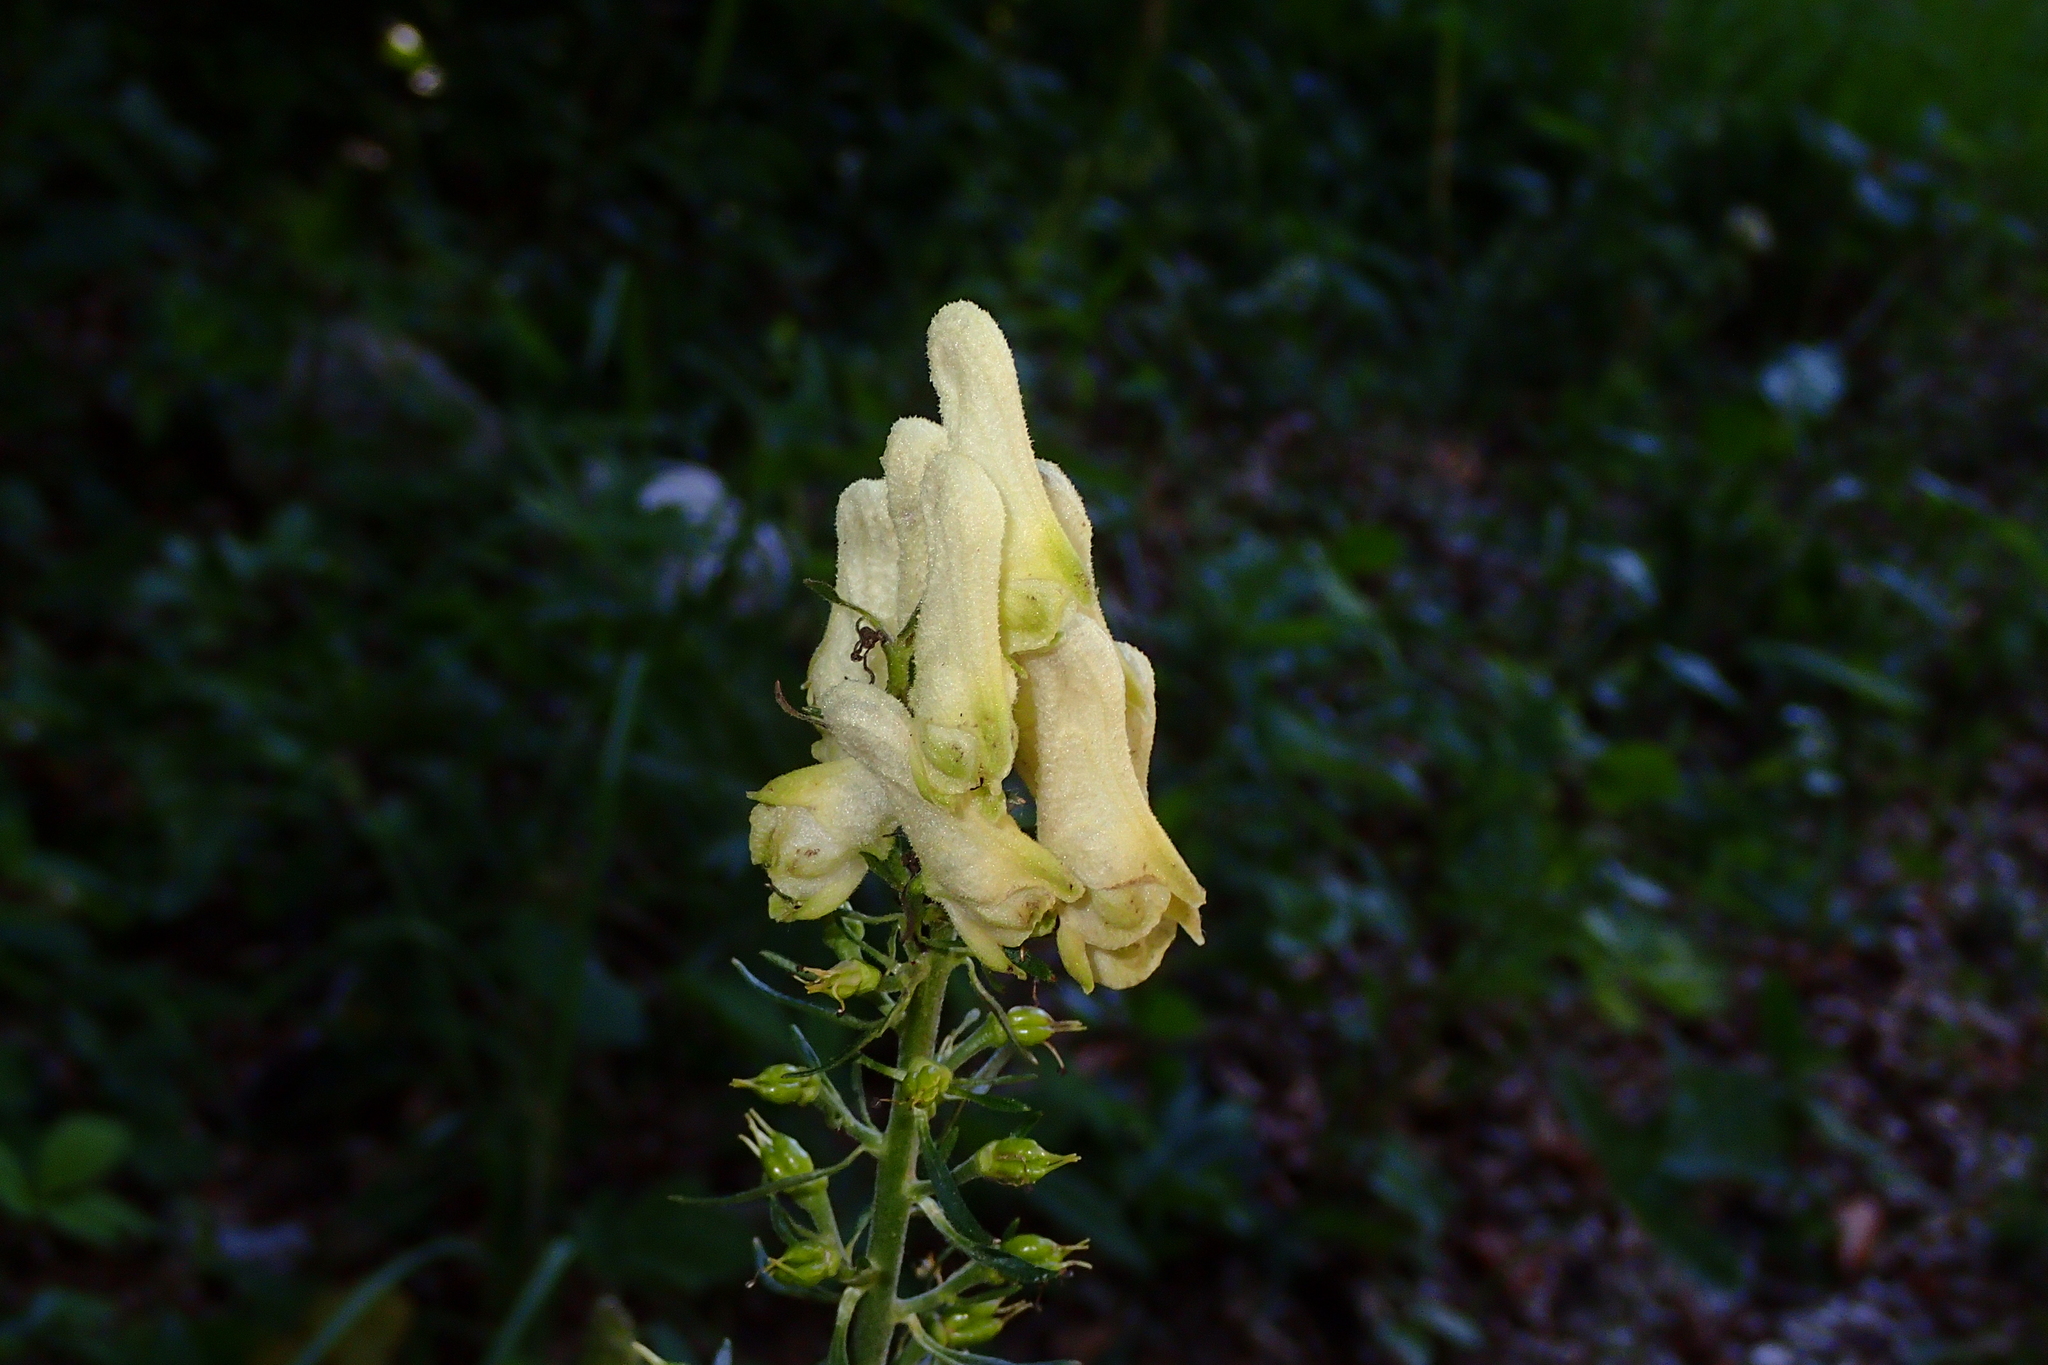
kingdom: Plantae
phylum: Tracheophyta
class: Magnoliopsida
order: Ranunculales
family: Ranunculaceae
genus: Aconitum
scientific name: Aconitum lycoctonum
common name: Wolf's-bane
